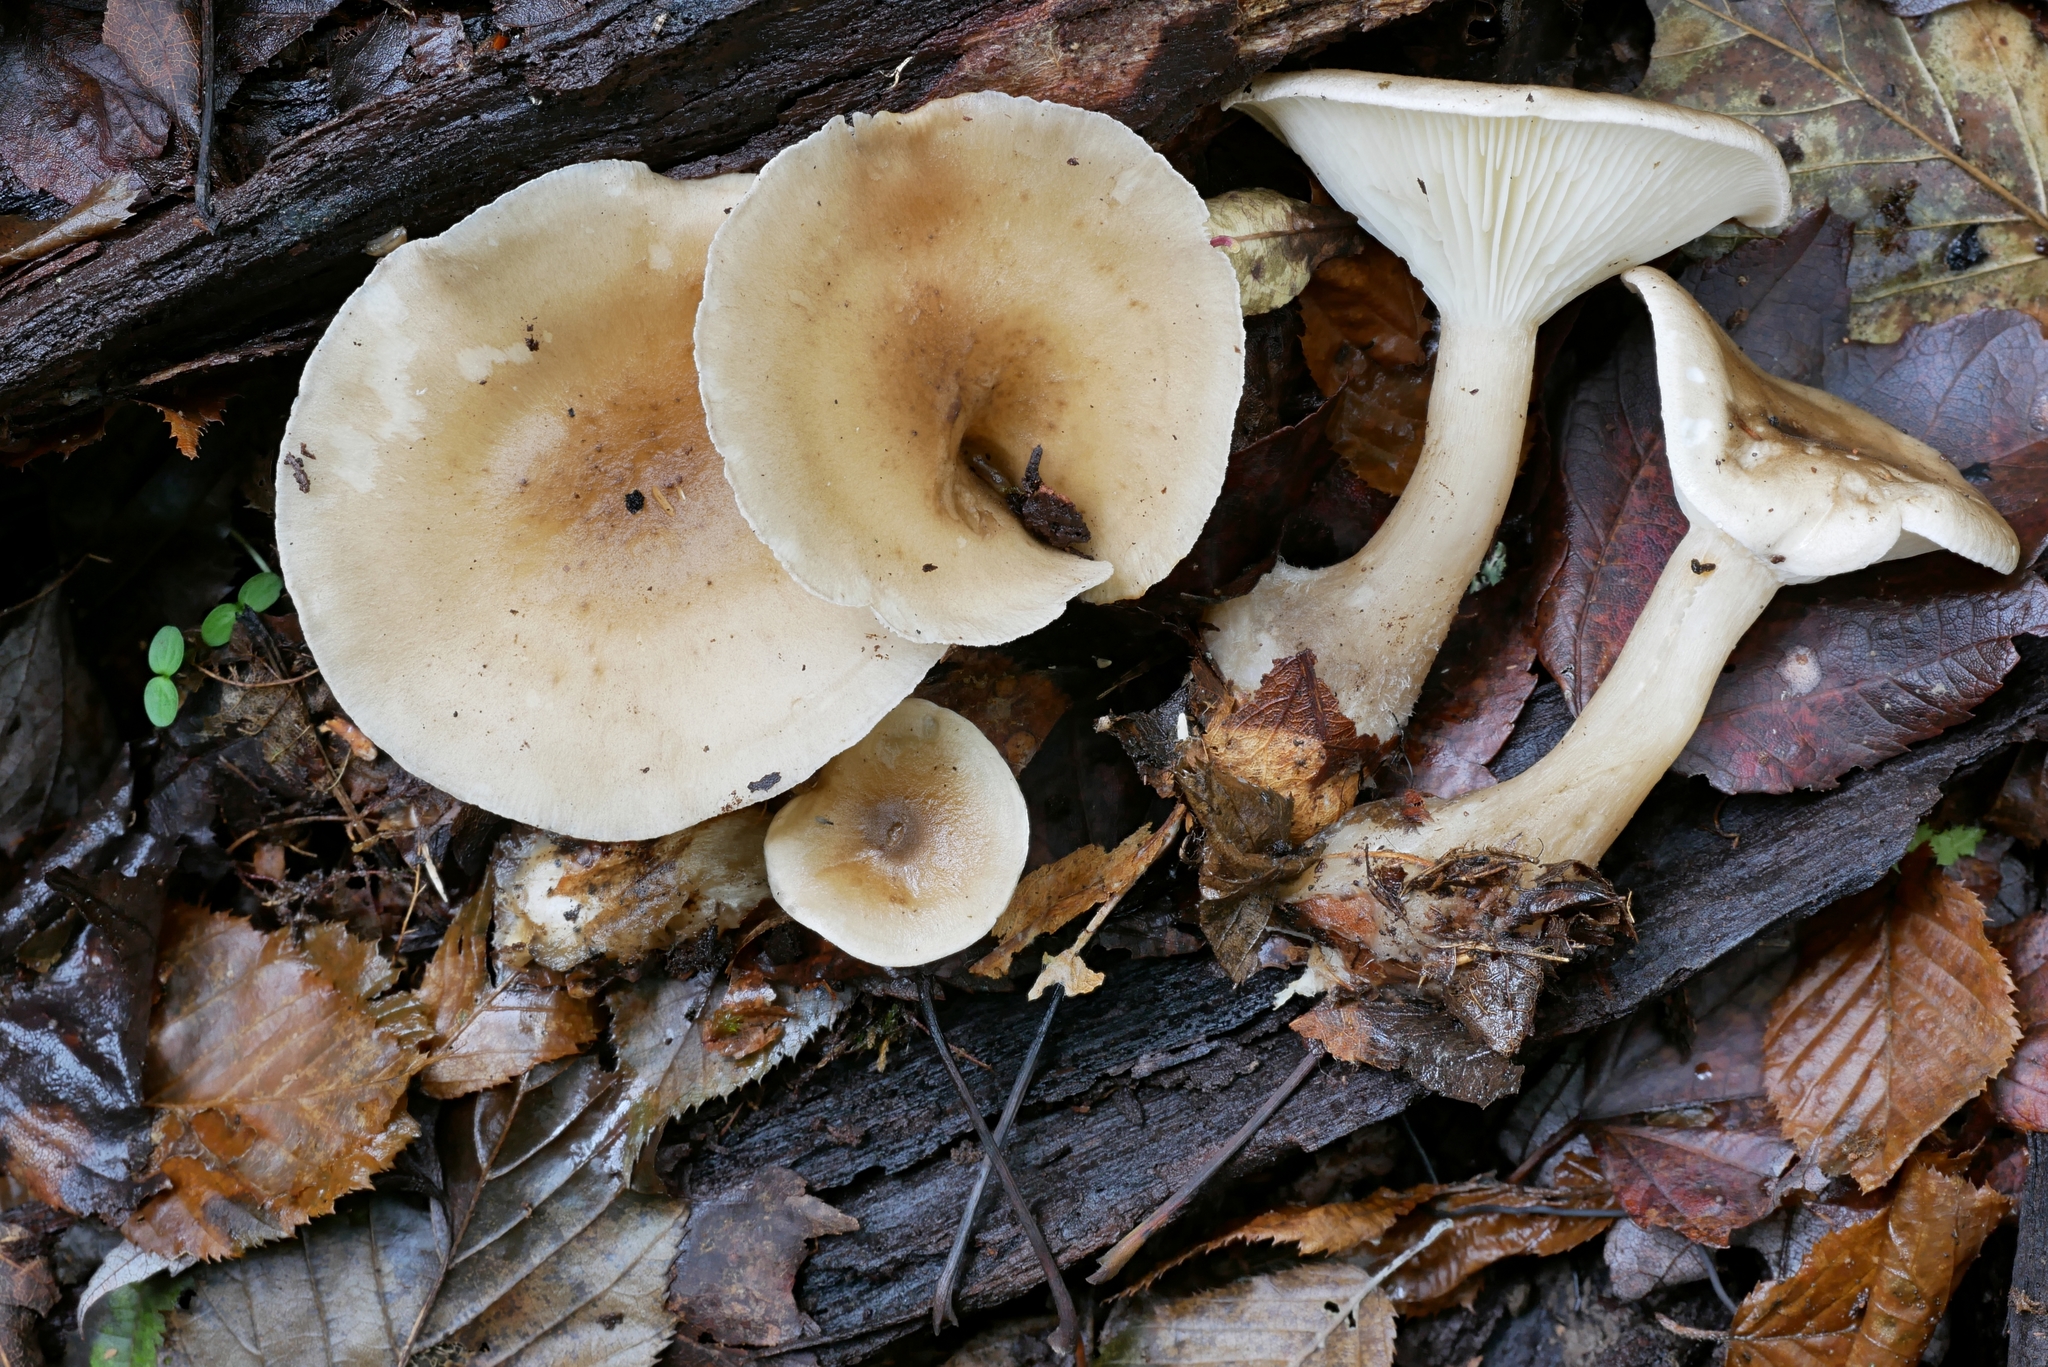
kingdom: Fungi
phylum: Basidiomycota
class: Agaricomycetes
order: Agaricales
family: Hygrophoraceae
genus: Ampulloclitocybe
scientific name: Ampulloclitocybe clavipes
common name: Club foot
